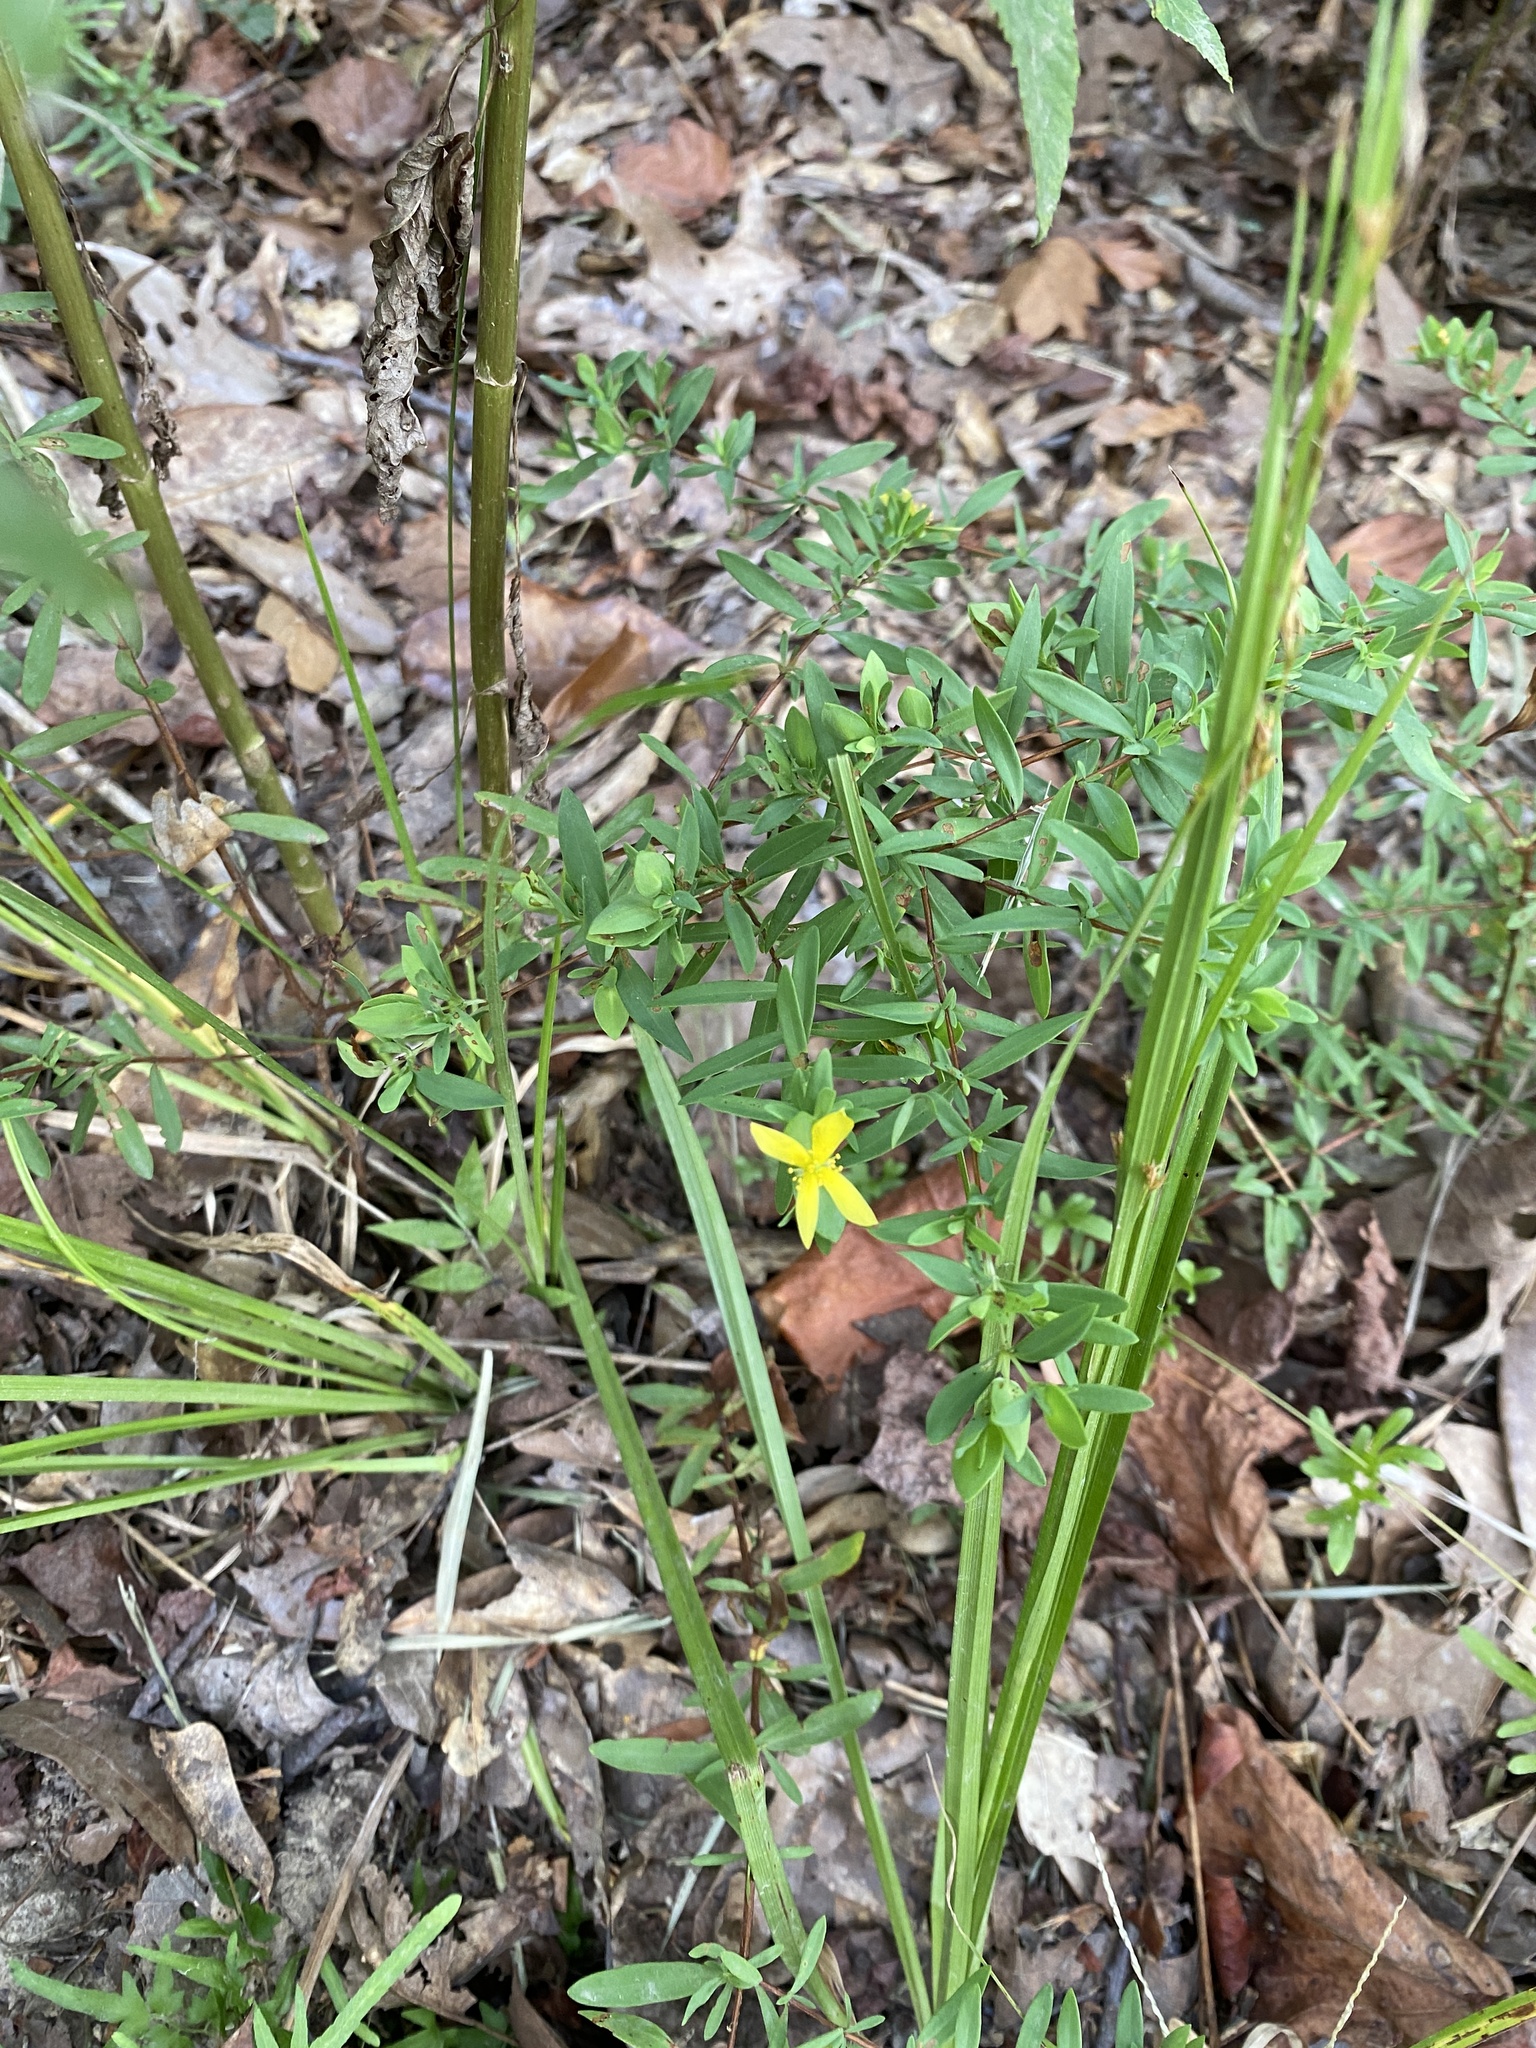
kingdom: Plantae
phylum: Tracheophyta
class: Magnoliopsida
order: Malpighiales
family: Hypericaceae
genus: Hypericum
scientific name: Hypericum hypericoides
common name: St. andrew's cross
